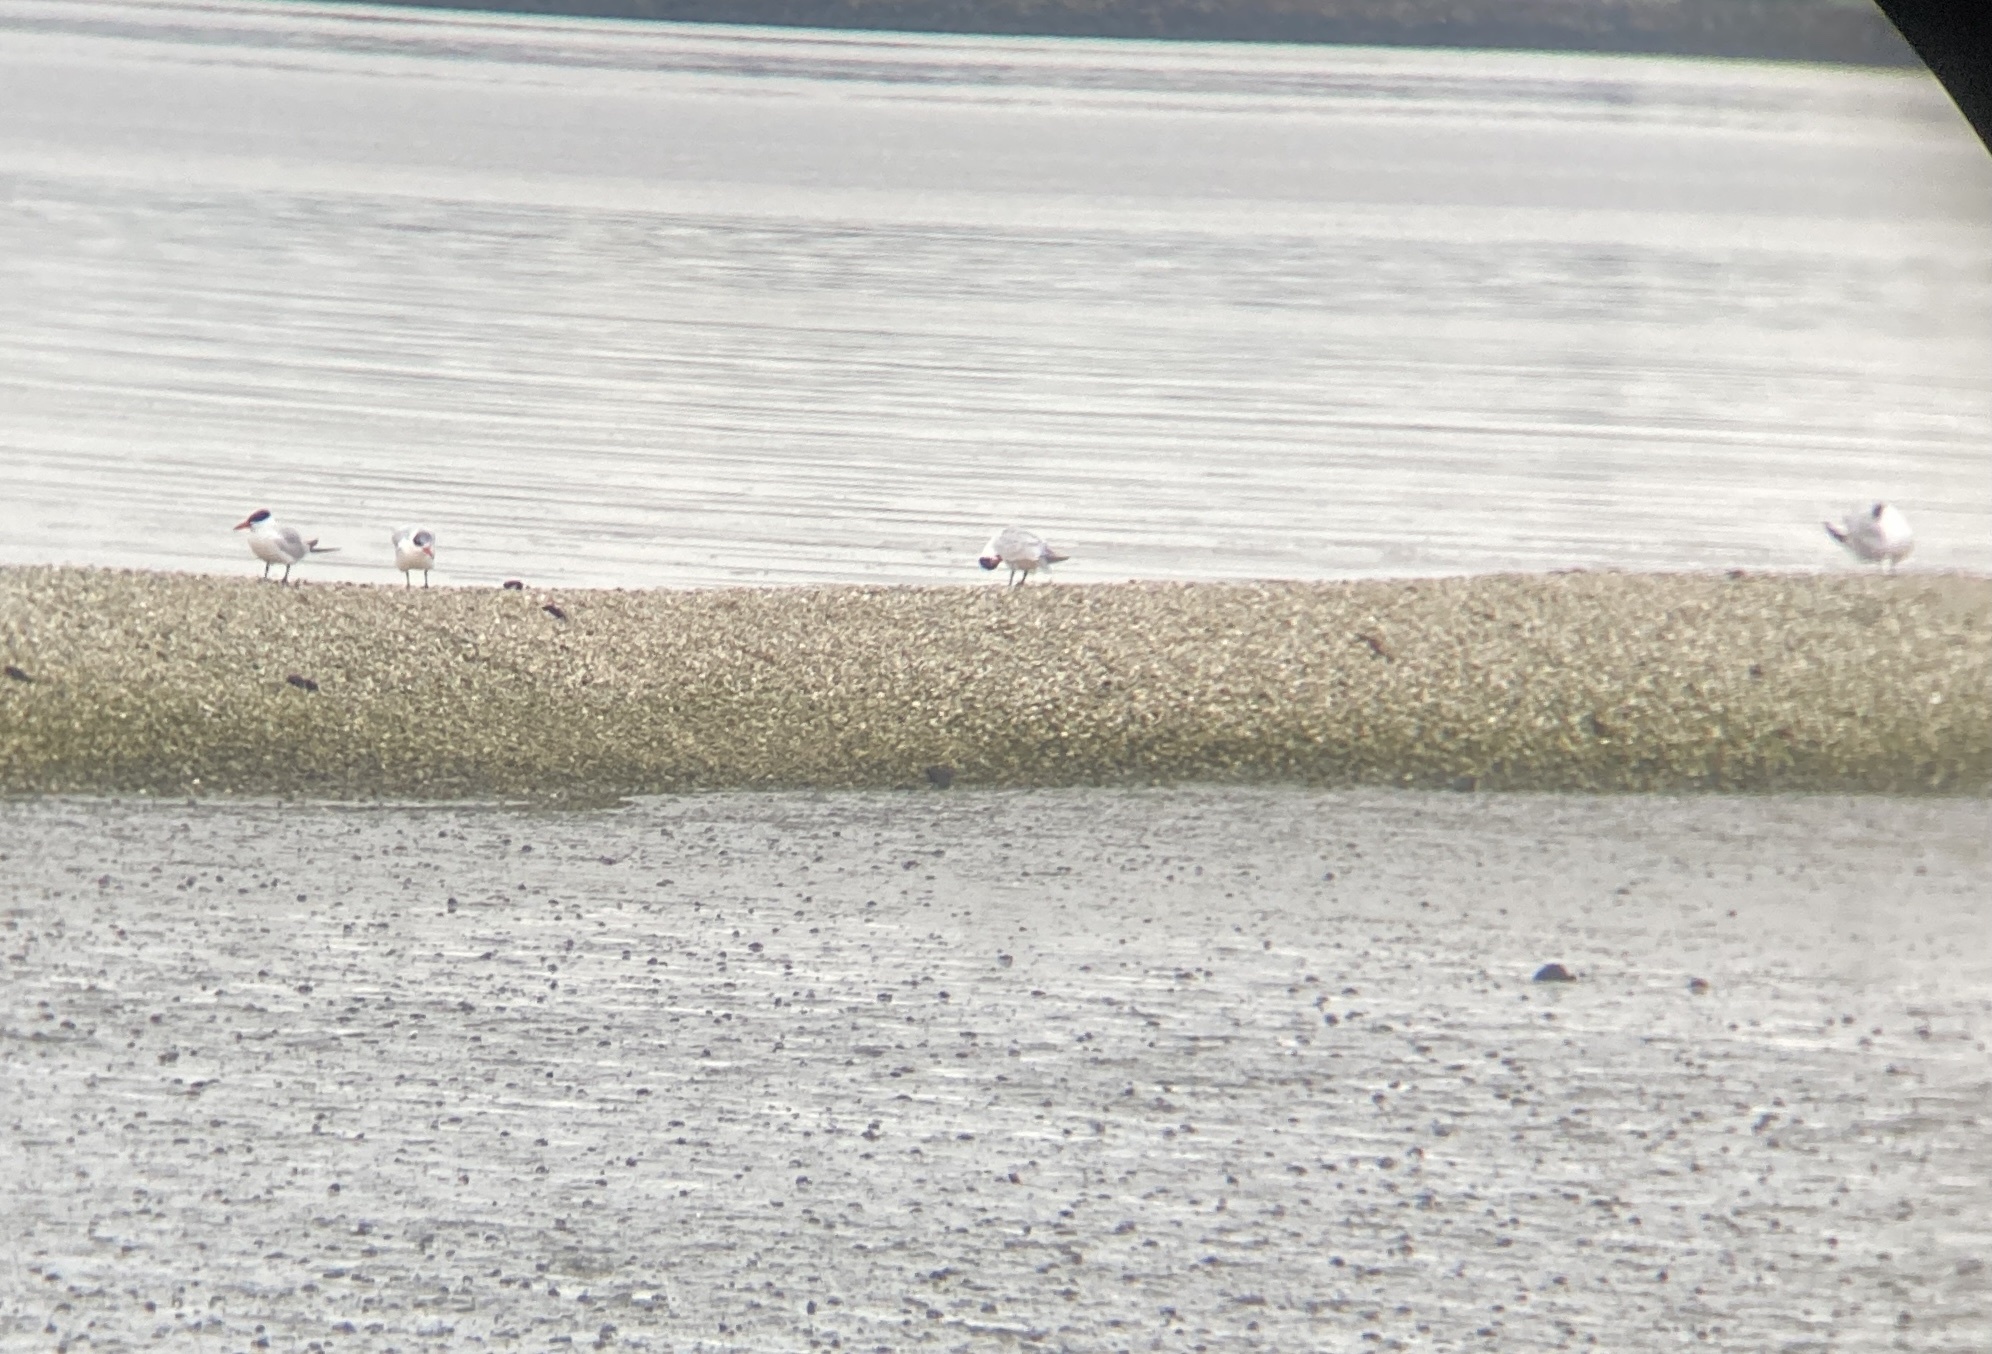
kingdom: Animalia
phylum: Chordata
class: Aves
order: Charadriiformes
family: Laridae
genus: Hydroprogne
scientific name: Hydroprogne caspia
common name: Caspian tern
